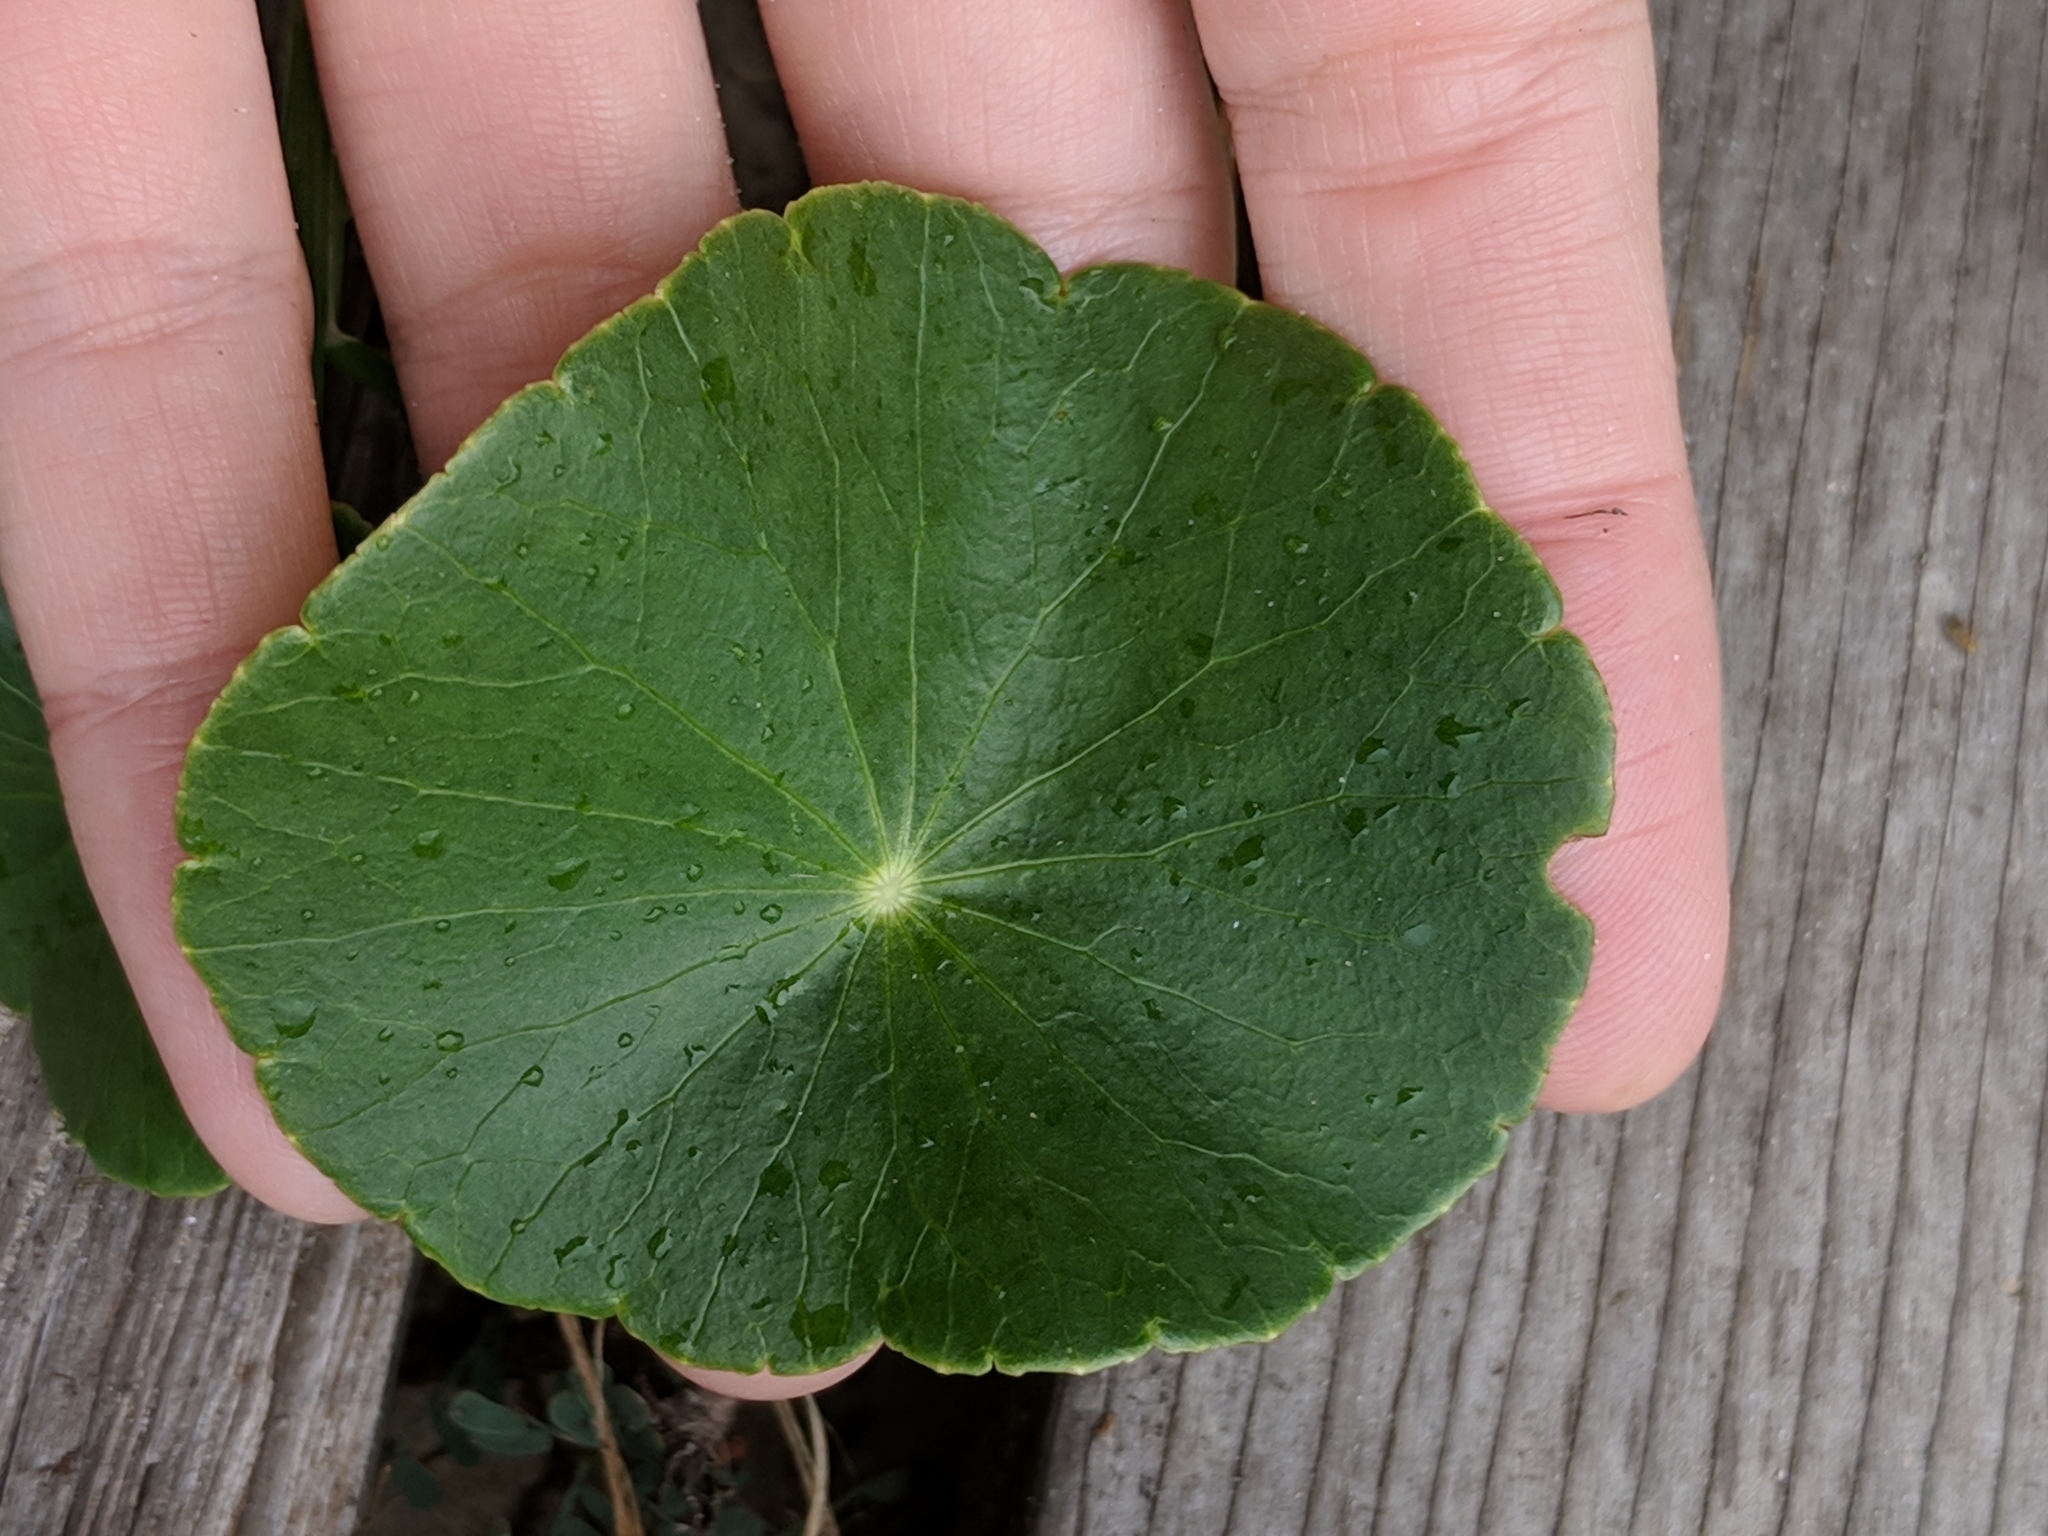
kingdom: Plantae
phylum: Tracheophyta
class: Magnoliopsida
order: Apiales
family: Araliaceae
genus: Hydrocotyle
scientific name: Hydrocotyle bonariensis
